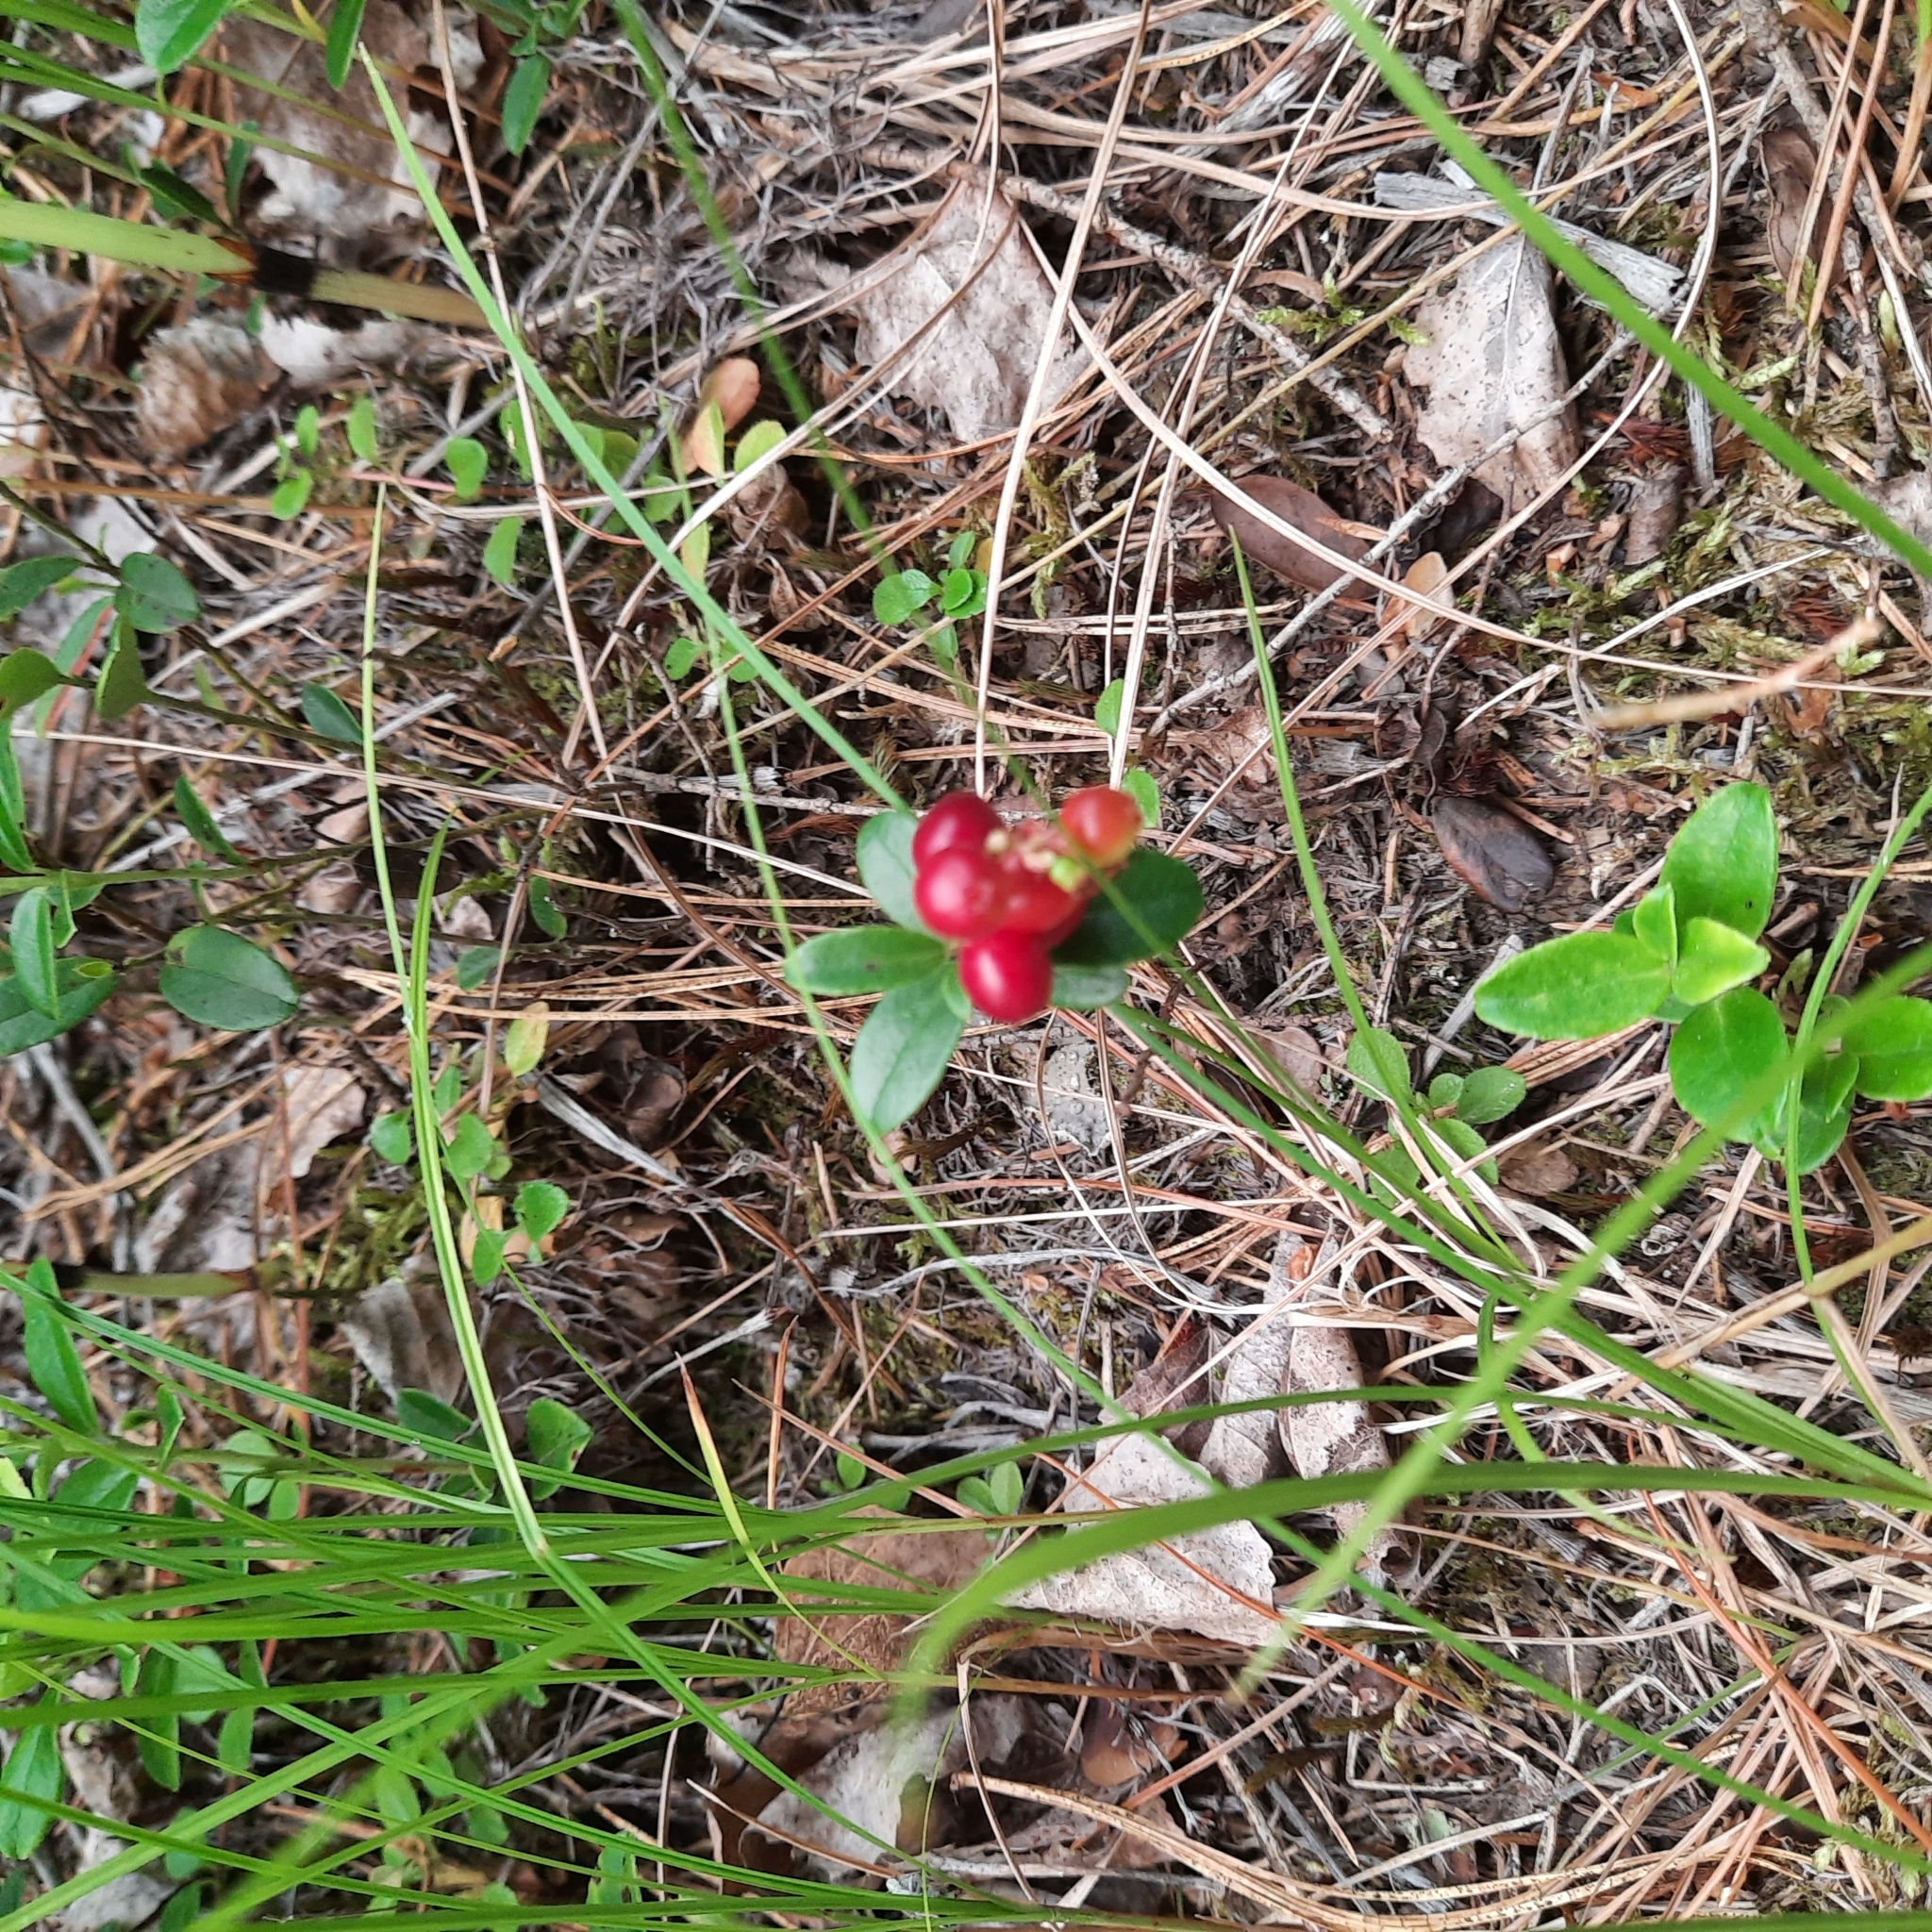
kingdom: Plantae
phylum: Tracheophyta
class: Magnoliopsida
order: Ericales
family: Ericaceae
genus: Vaccinium
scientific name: Vaccinium vitis-idaea
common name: Cowberry
